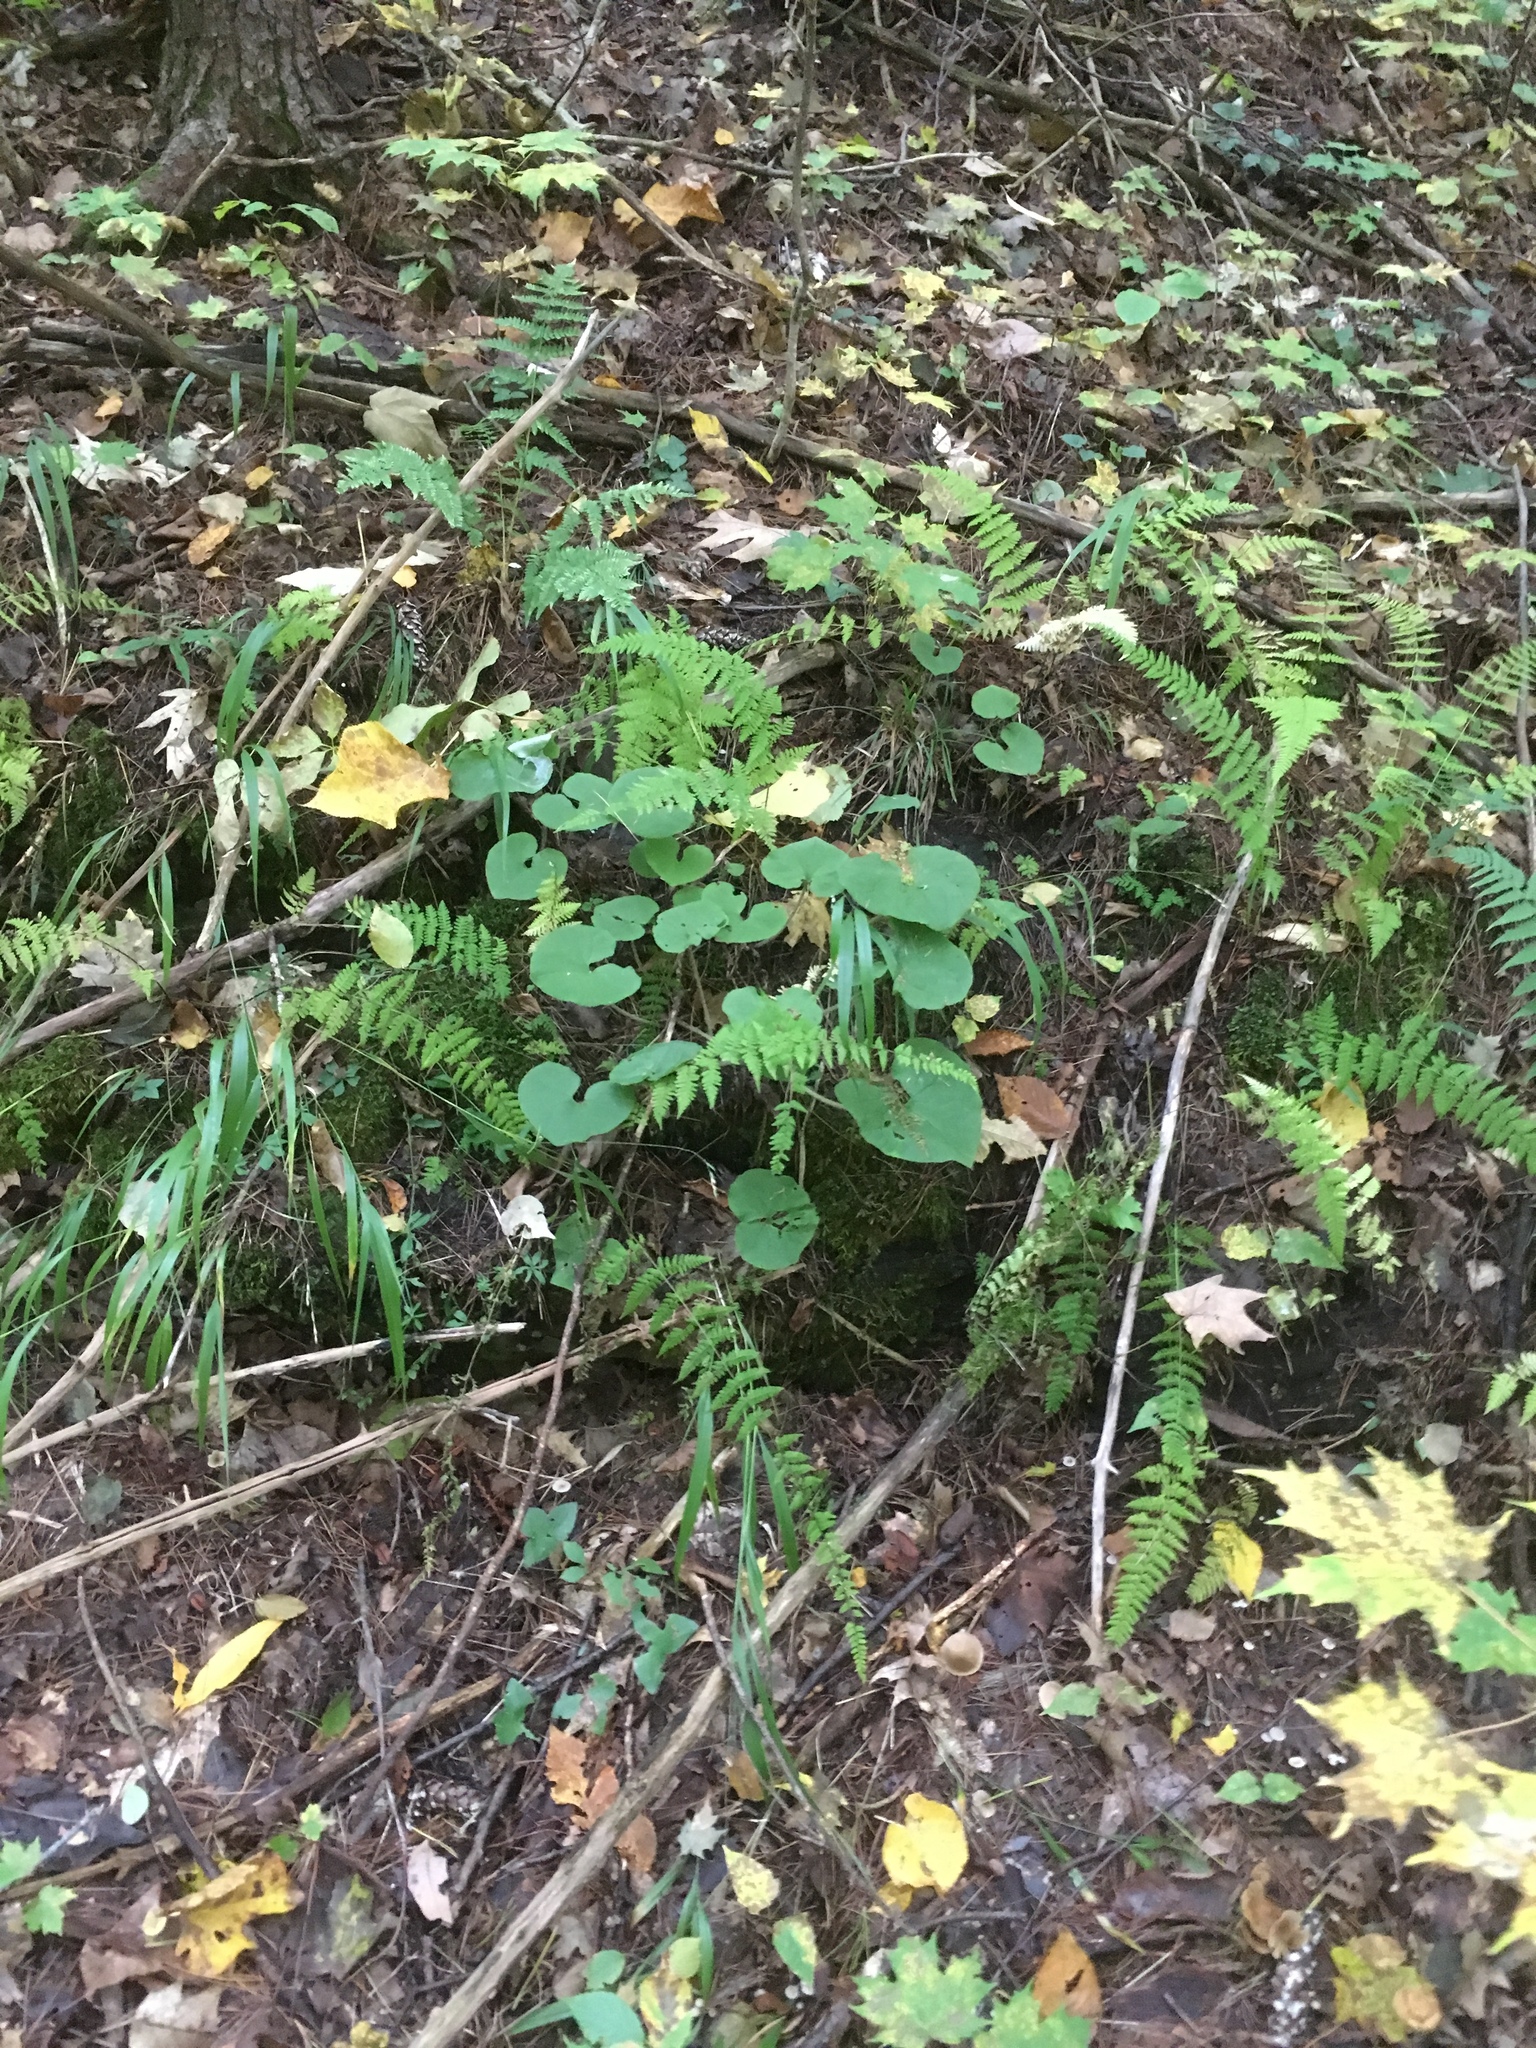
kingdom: Plantae
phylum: Tracheophyta
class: Magnoliopsida
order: Piperales
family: Aristolochiaceae
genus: Asarum
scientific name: Asarum canadense
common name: Wild ginger
